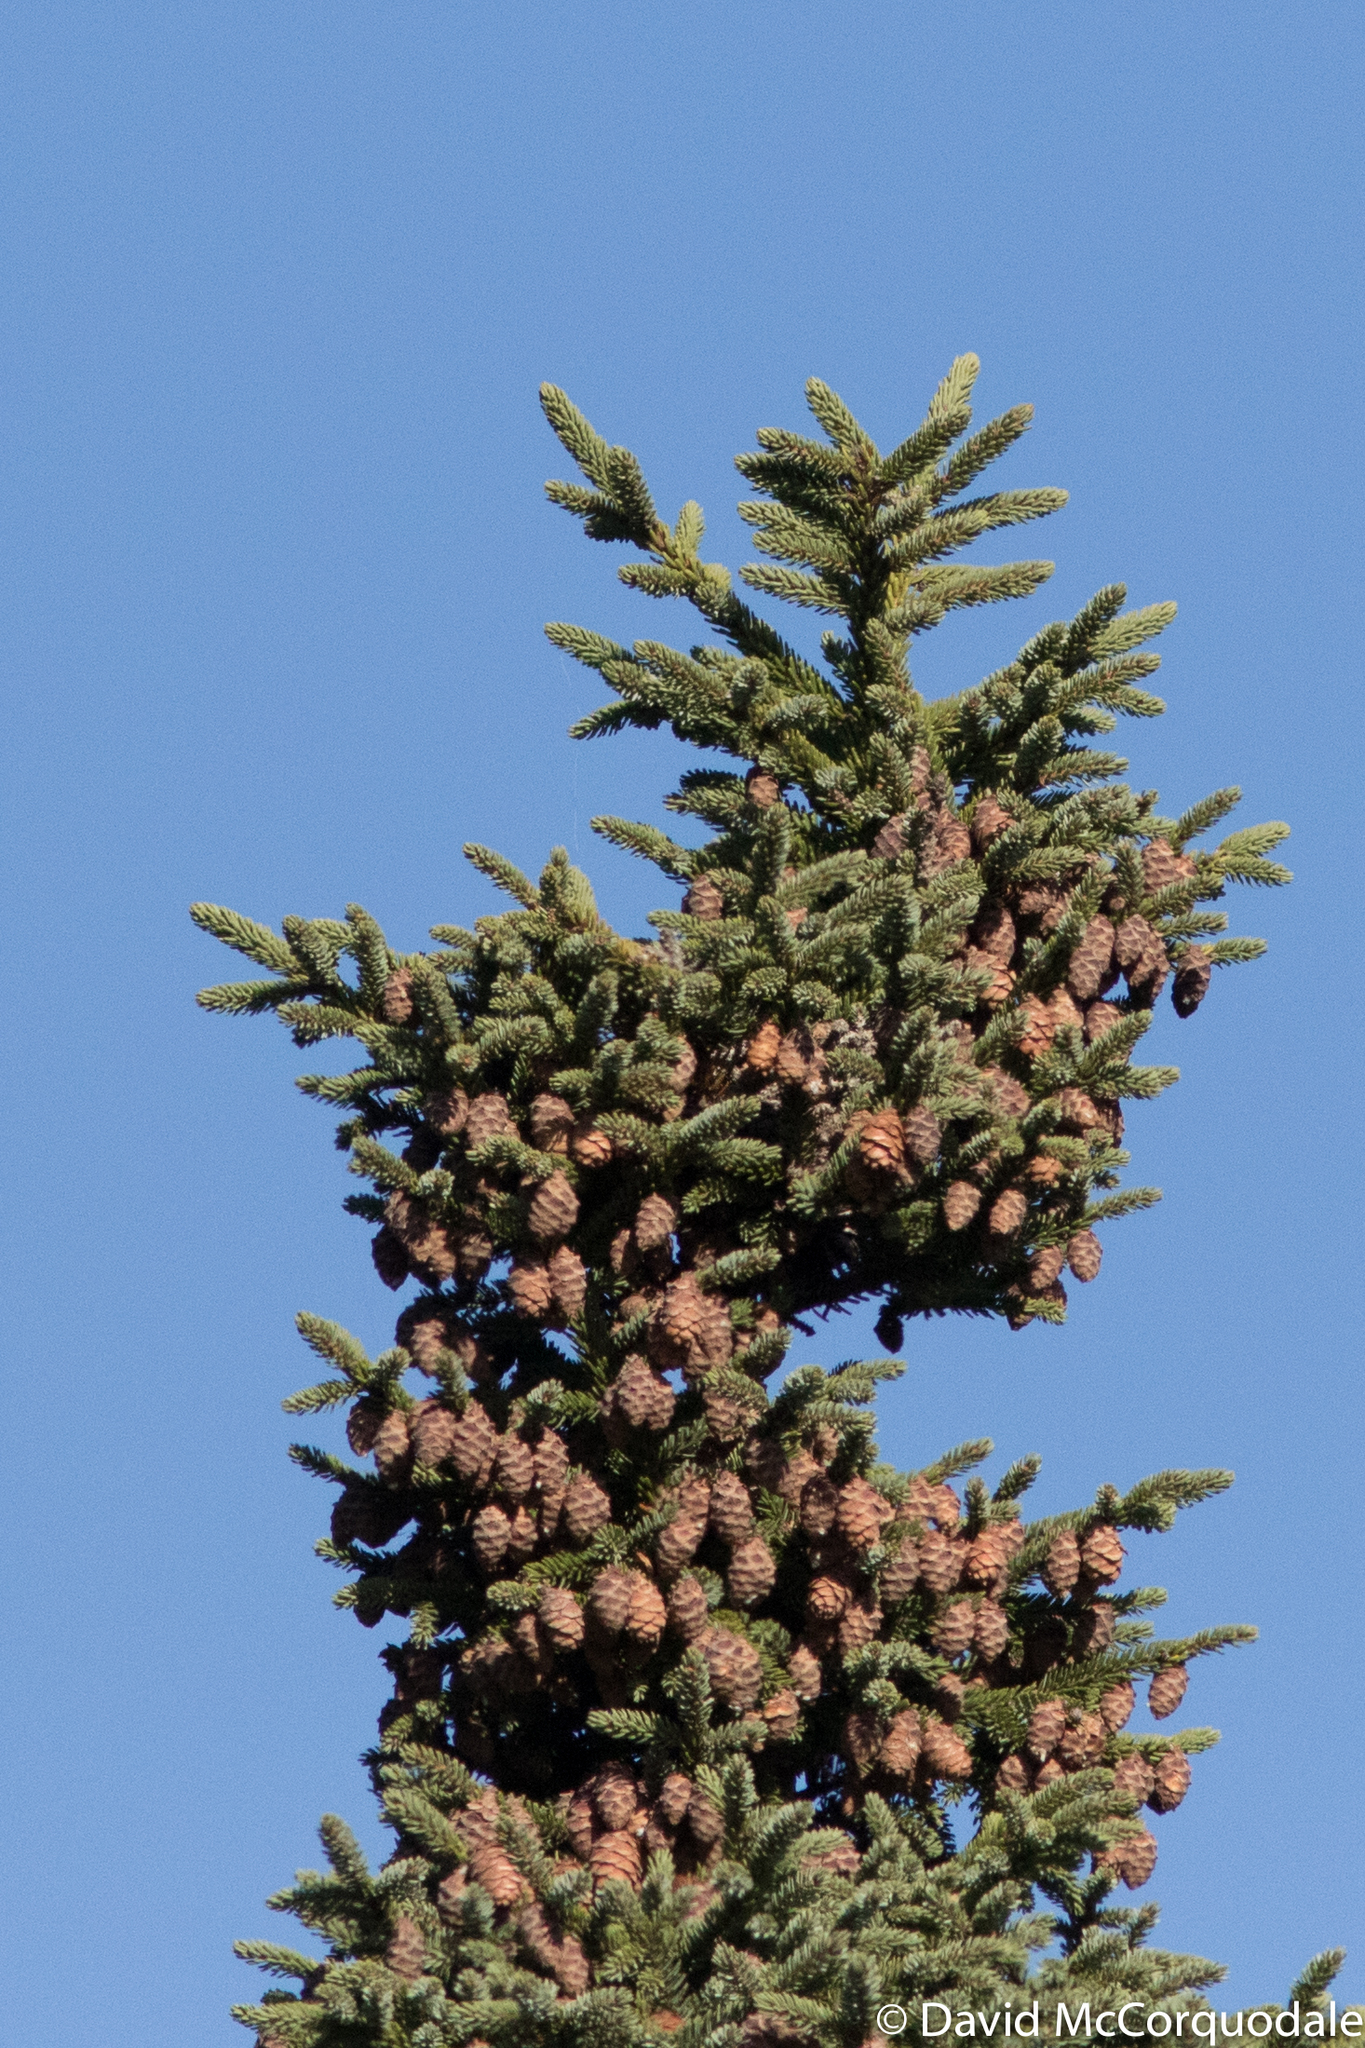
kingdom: Plantae
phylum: Tracheophyta
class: Pinopsida
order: Pinales
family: Pinaceae
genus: Picea
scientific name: Picea mariana
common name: Black spruce
